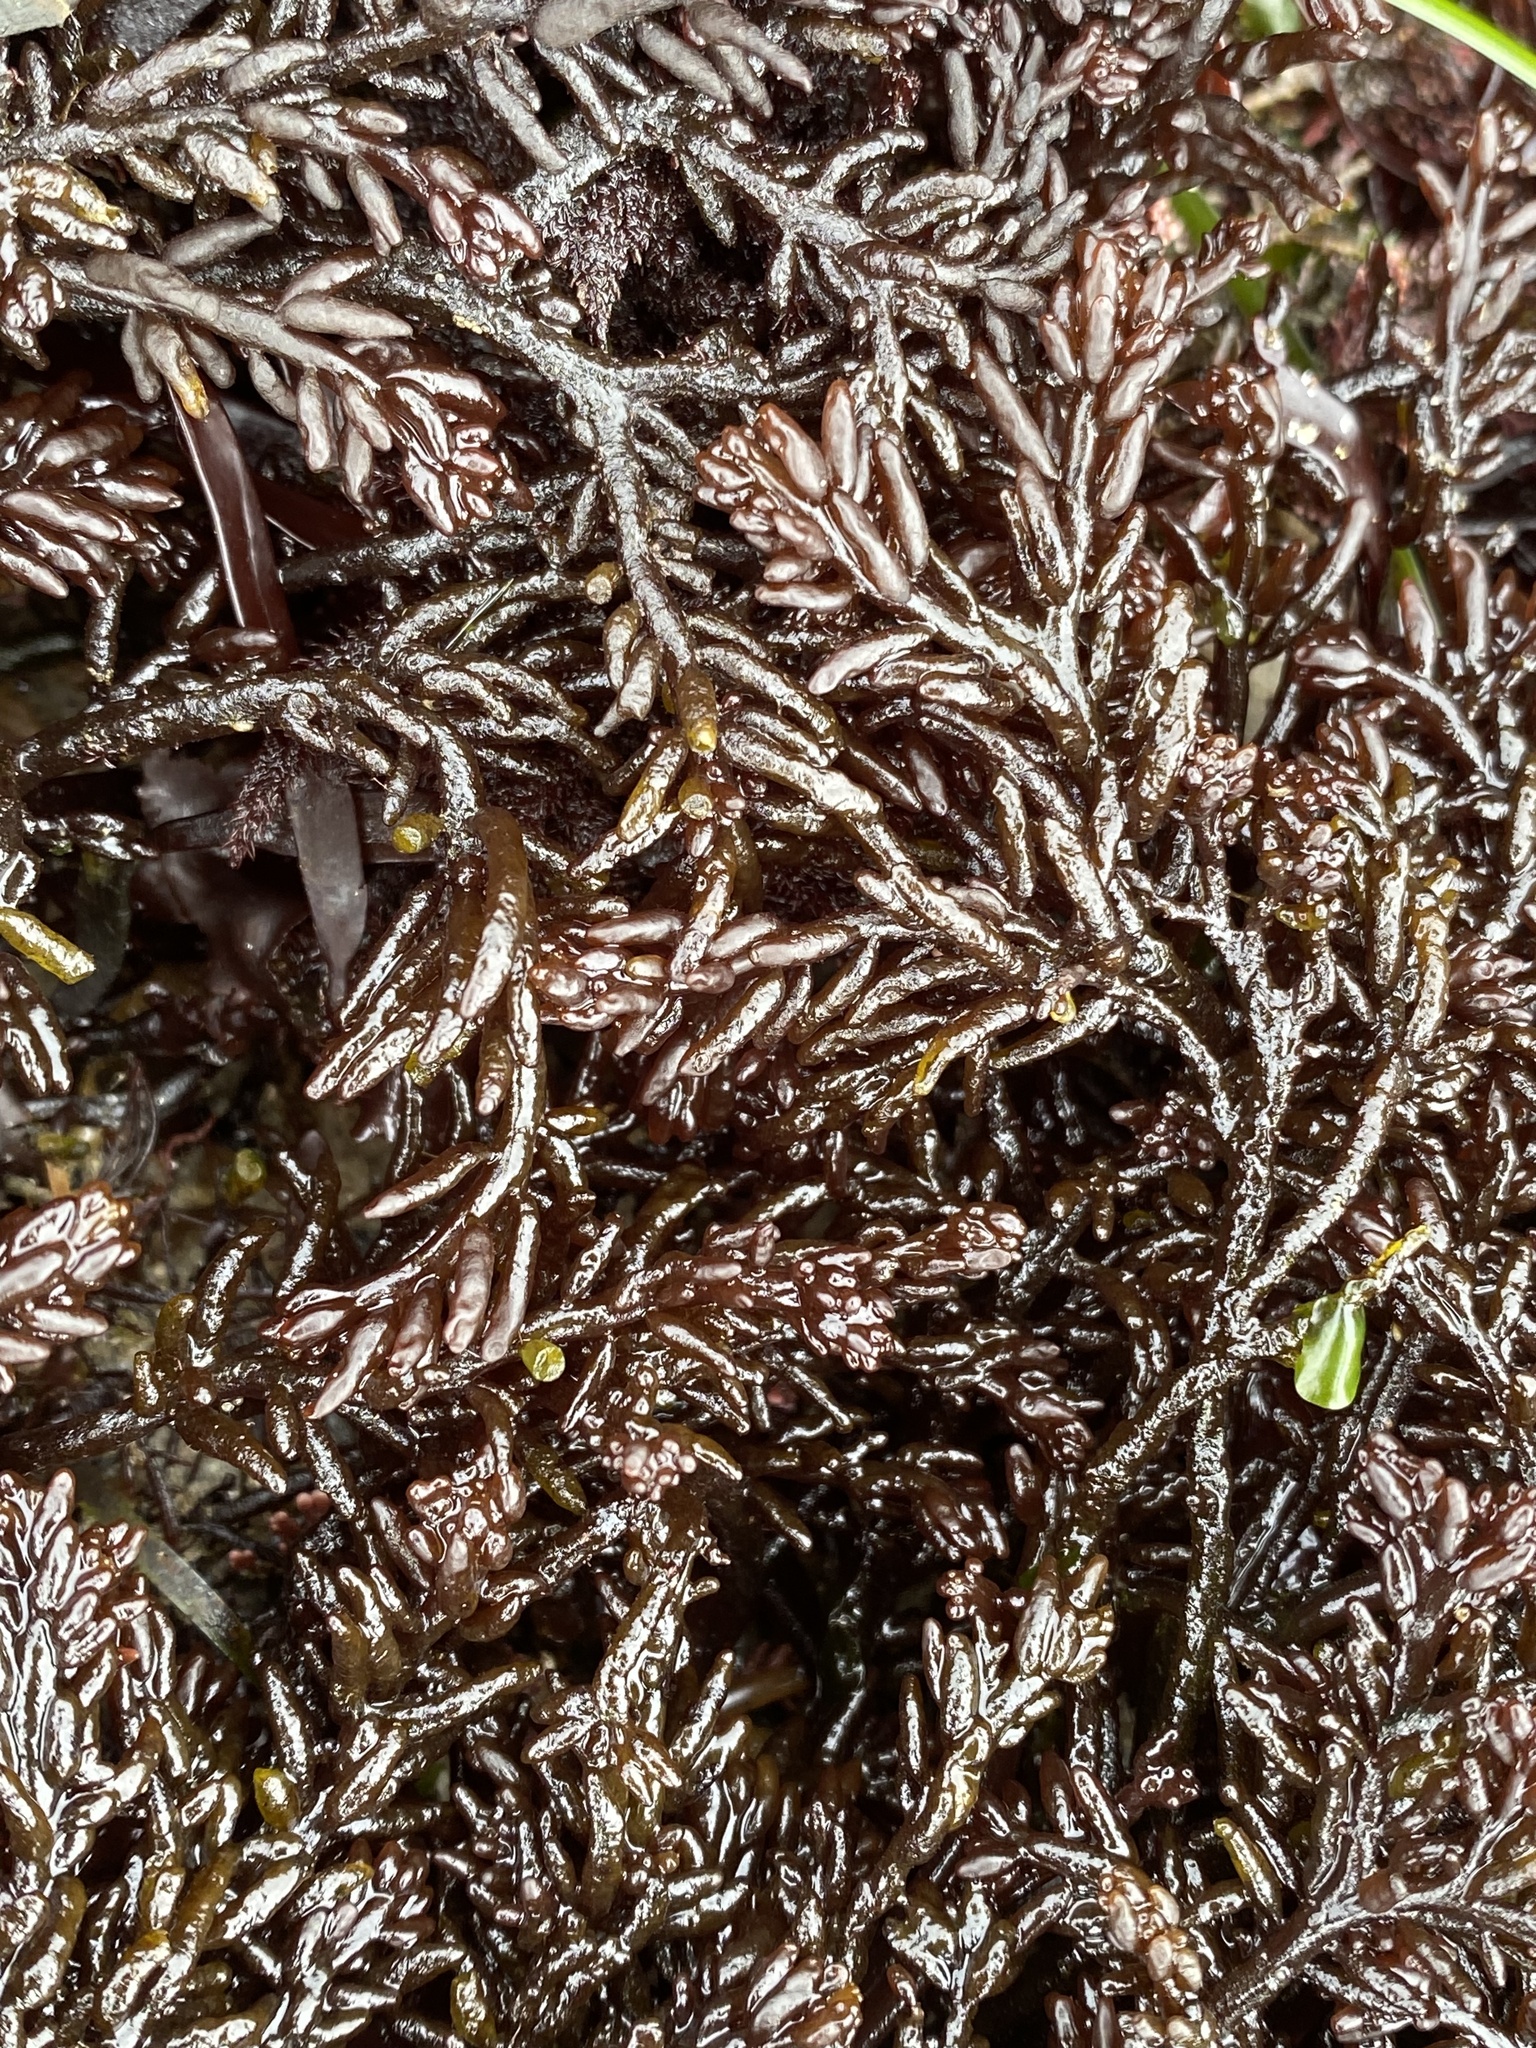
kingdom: Plantae
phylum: Rhodophyta
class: Florideophyceae
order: Rhodymeniales
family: Champiaceae
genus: Neogastroclonium
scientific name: Neogastroclonium subarticulatum
